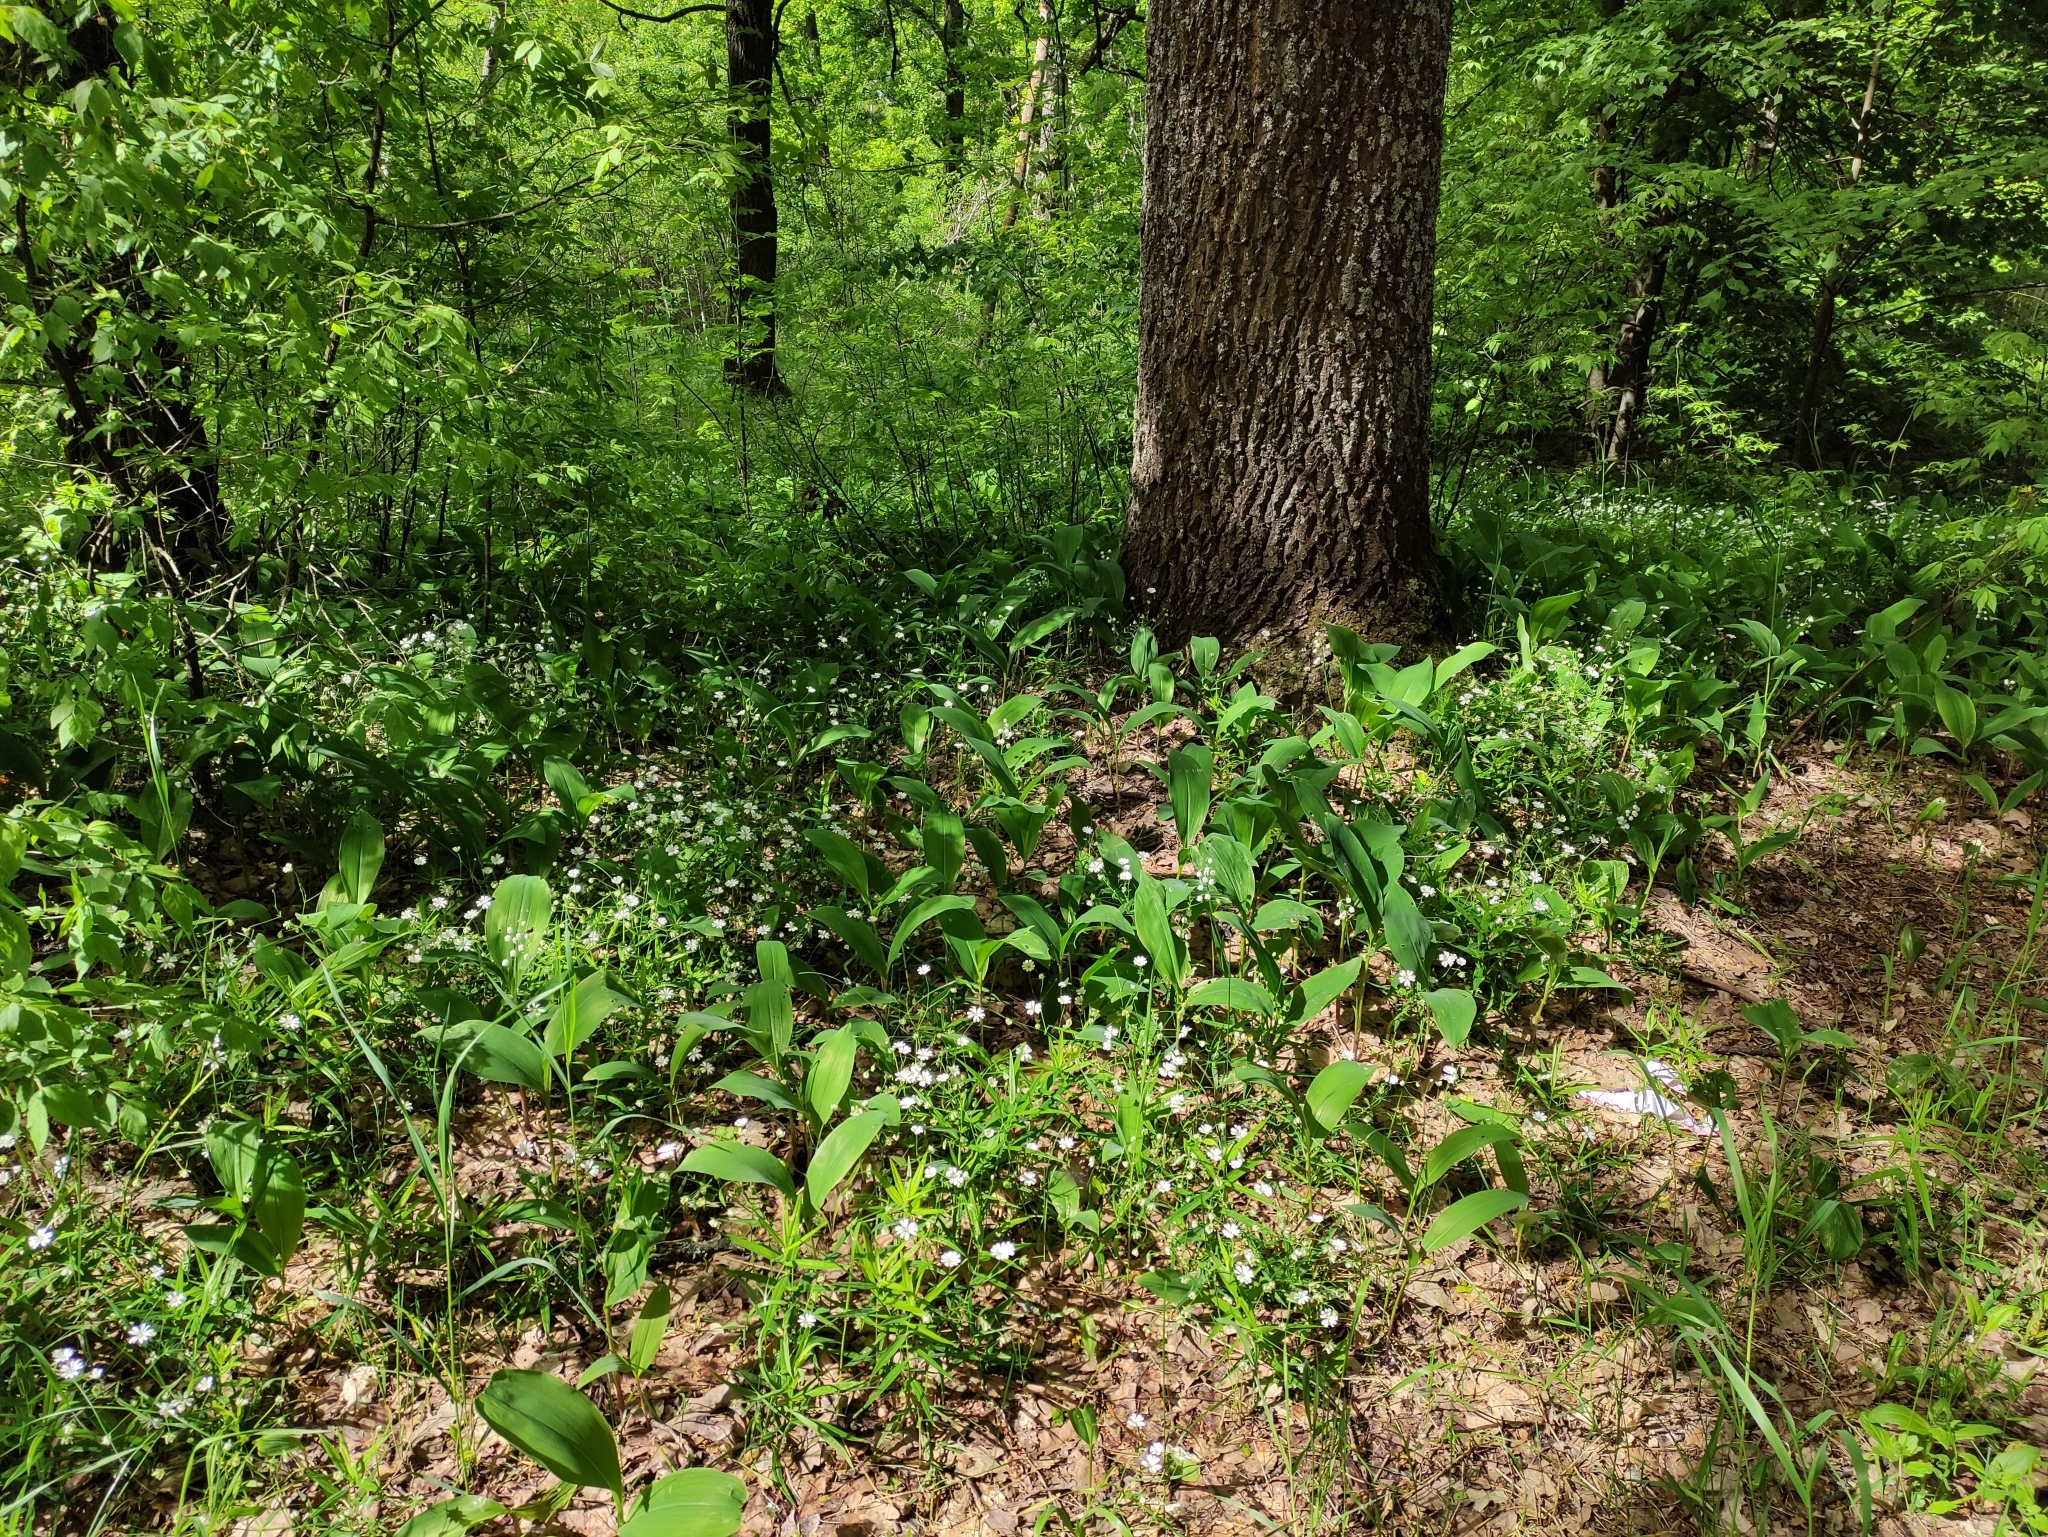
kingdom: Plantae
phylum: Tracheophyta
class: Liliopsida
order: Asparagales
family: Asparagaceae
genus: Convallaria
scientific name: Convallaria majalis
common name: Lily-of-the-valley
